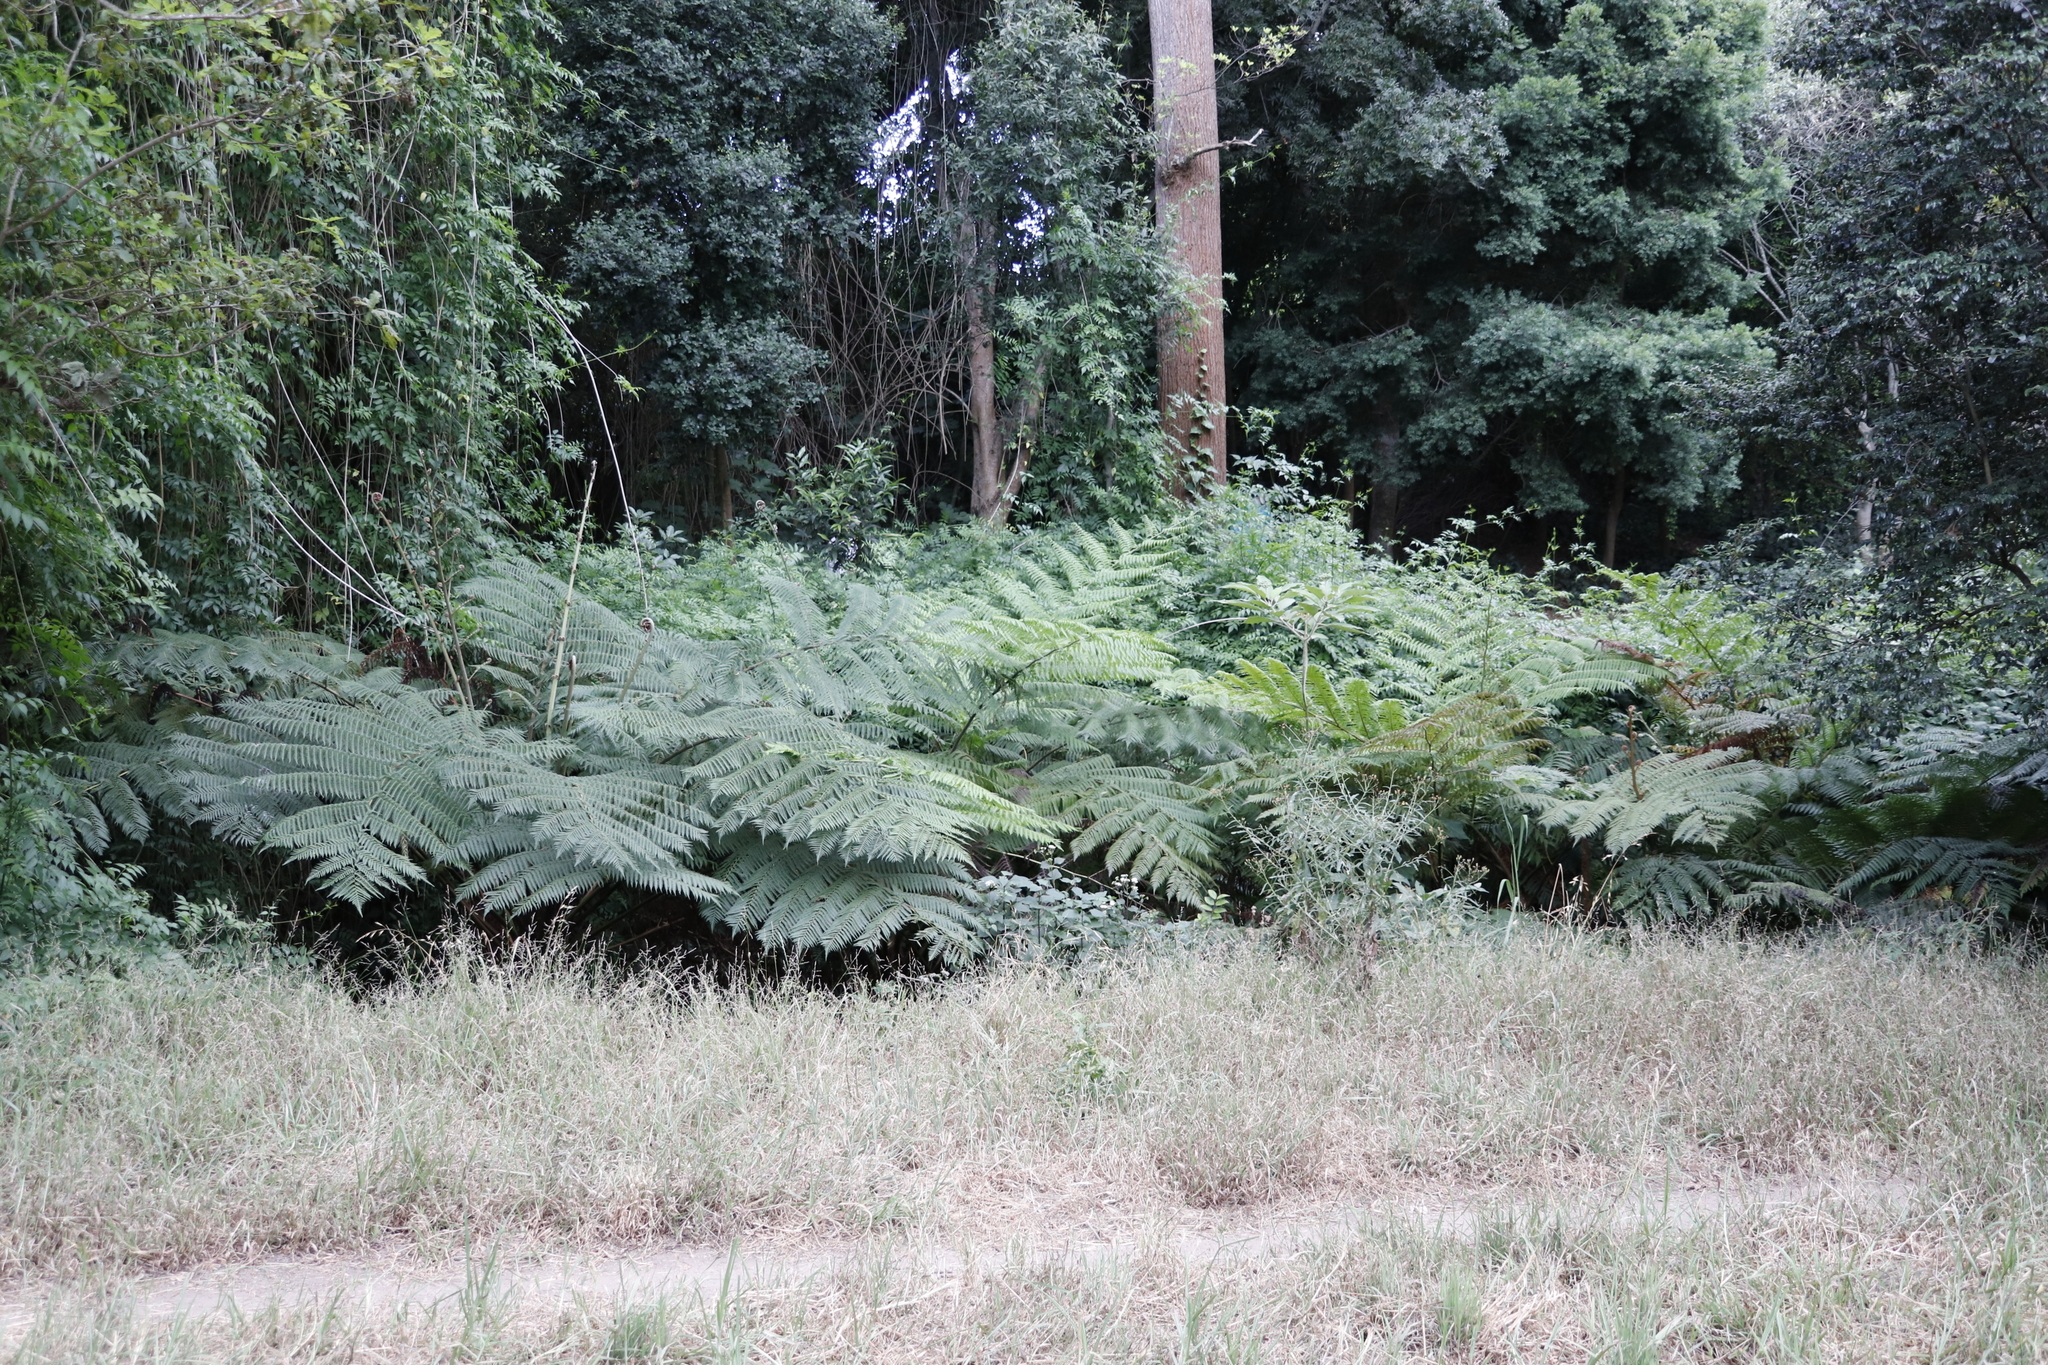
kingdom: Plantae
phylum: Tracheophyta
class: Polypodiopsida
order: Cyatheales
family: Cyatheaceae
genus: Sphaeropteris
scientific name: Sphaeropteris cooperi
